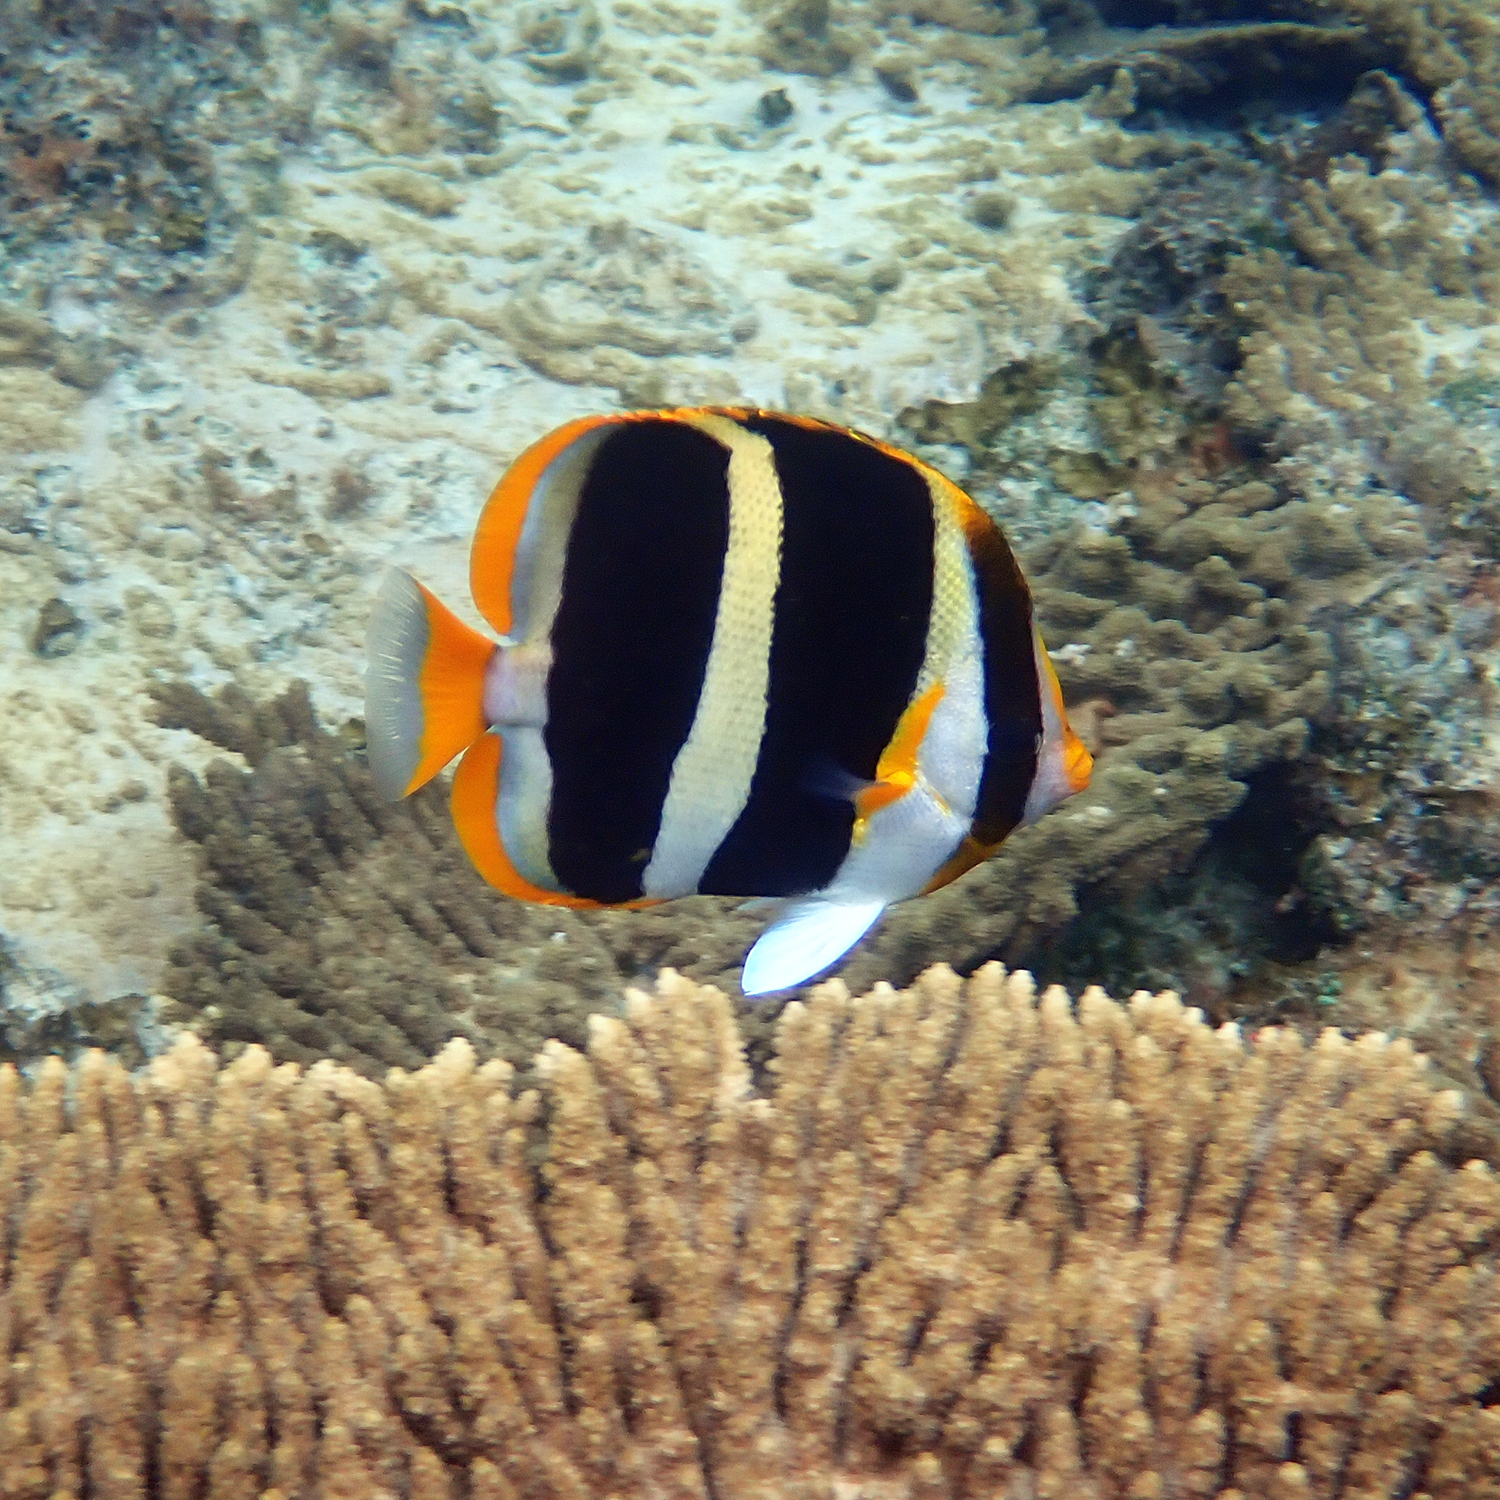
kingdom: Animalia
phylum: Chordata
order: Perciformes
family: Chaetodontidae
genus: Chaetodon
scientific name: Chaetodon tricinctus
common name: Three-striped butterflyfish
